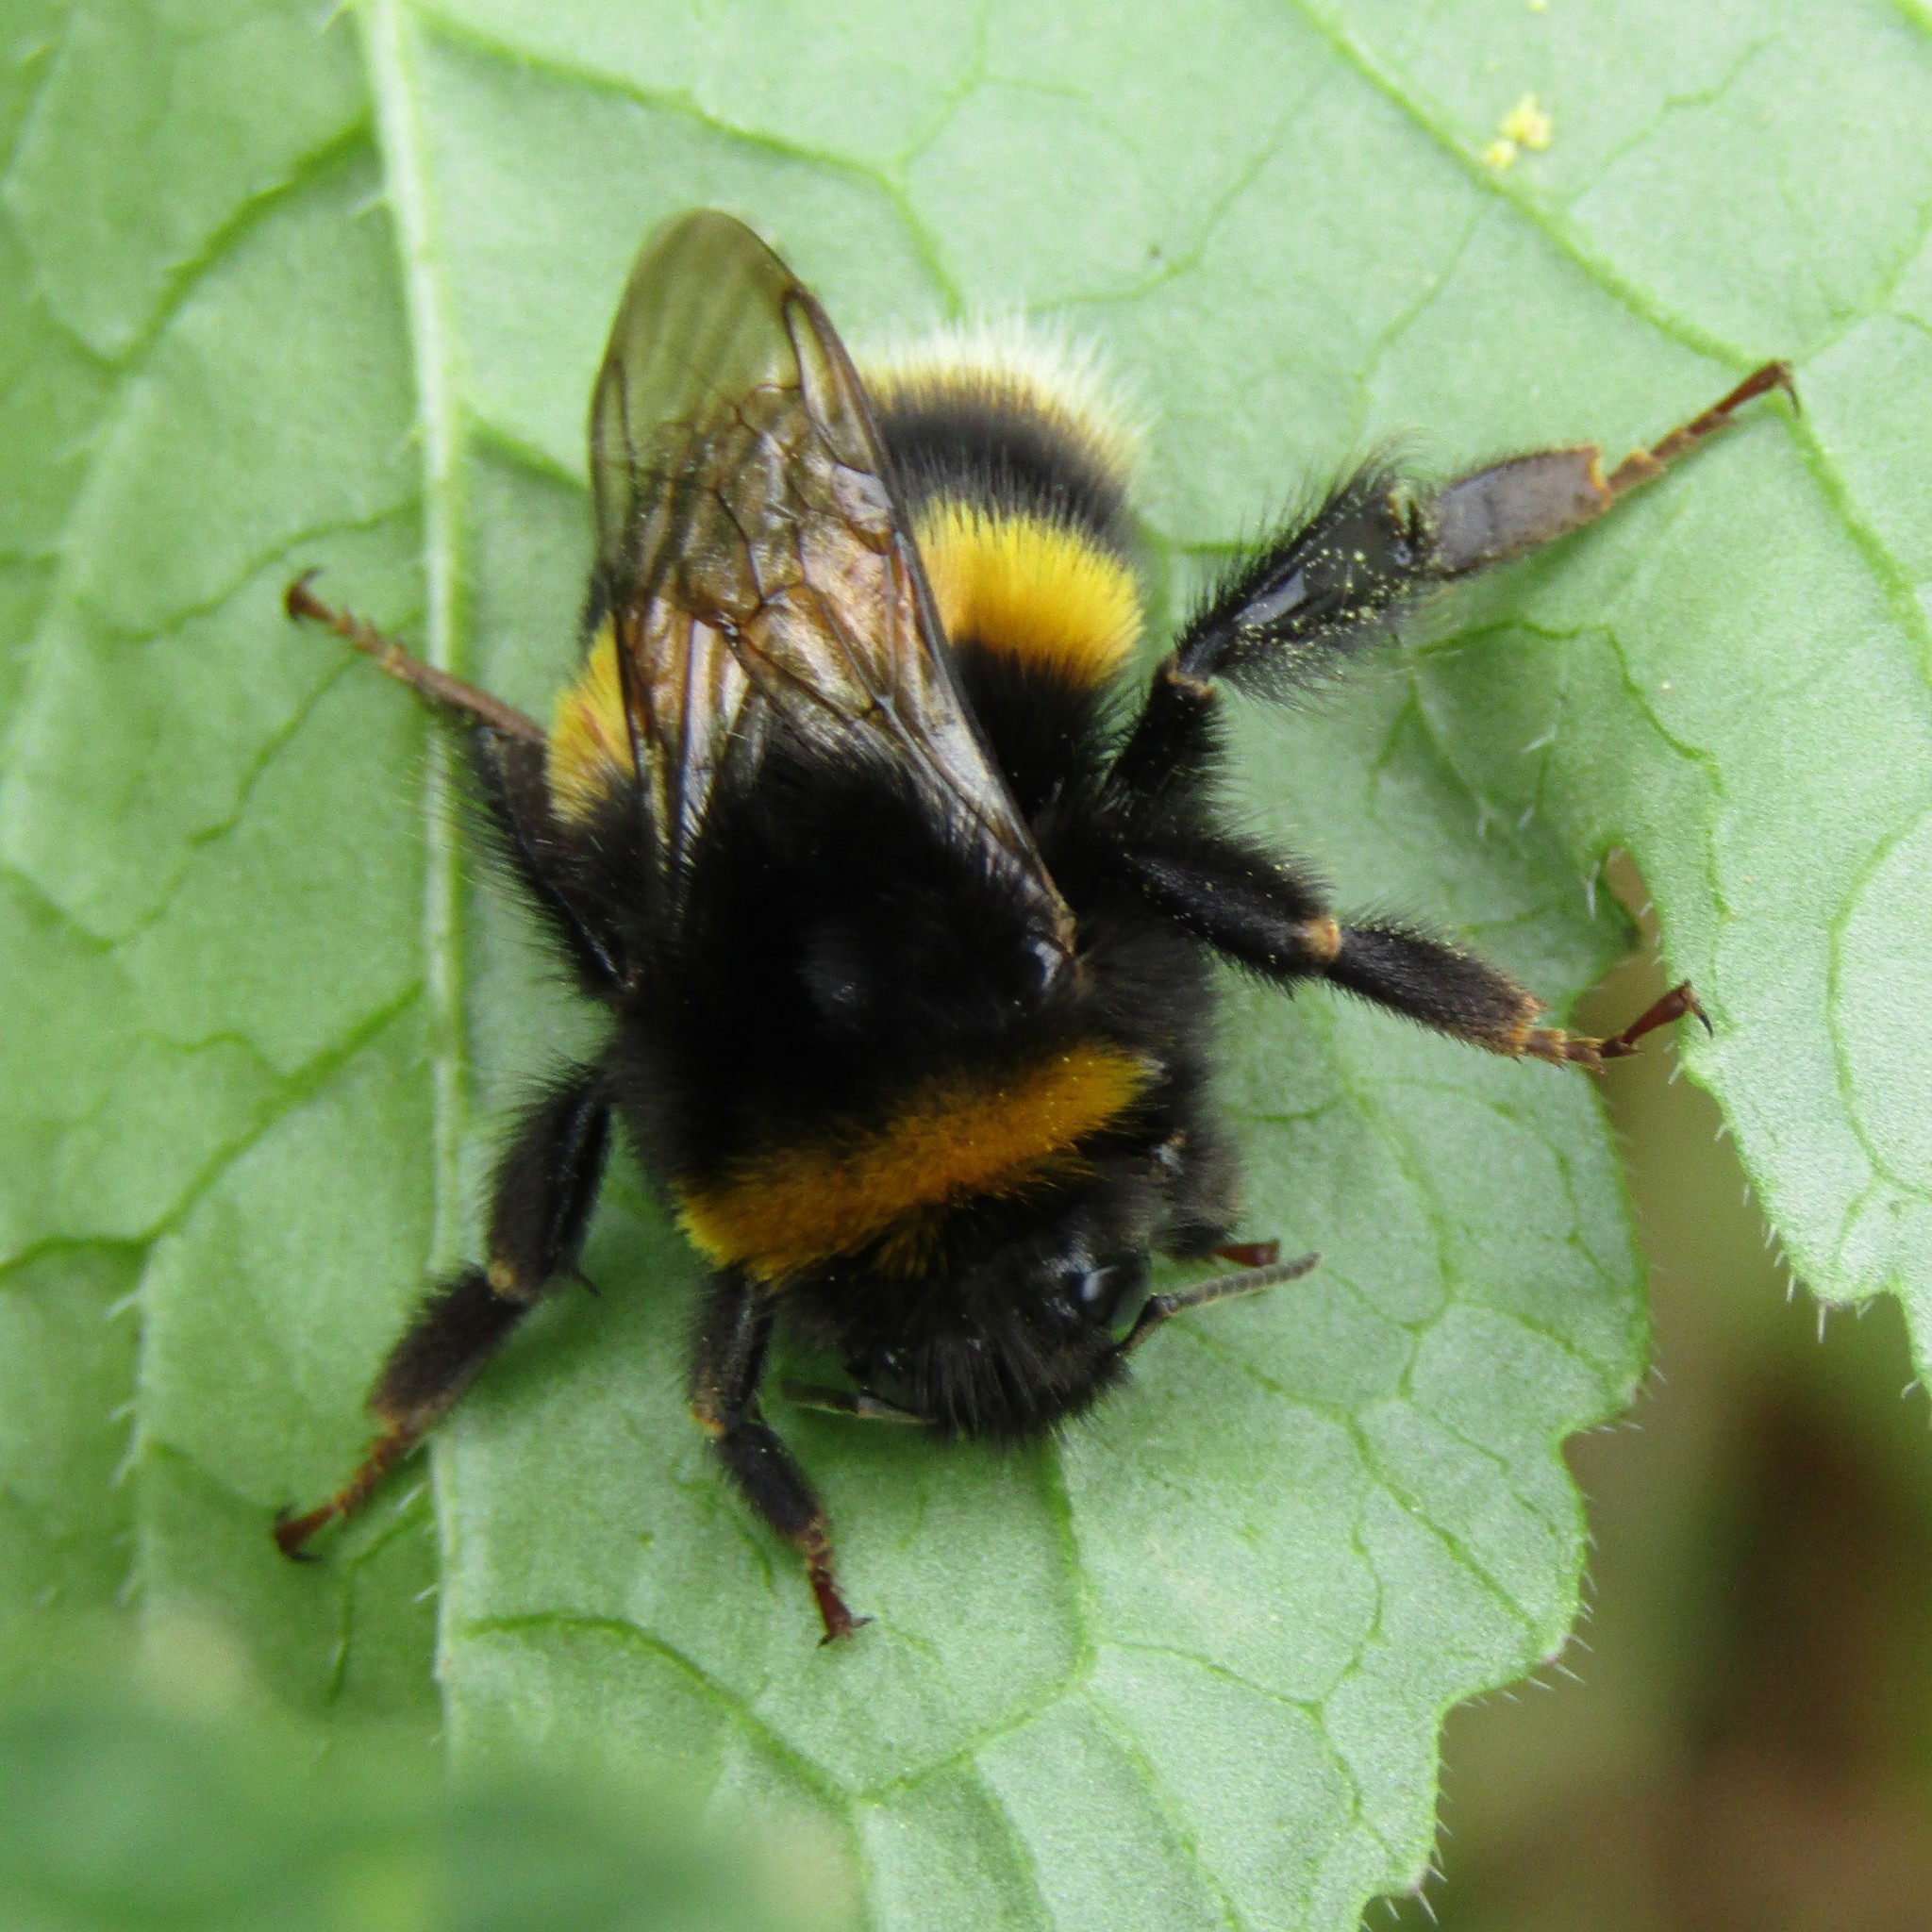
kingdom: Animalia
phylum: Arthropoda
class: Insecta
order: Hymenoptera
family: Apidae
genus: Bombus
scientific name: Bombus terrestris
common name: Buff-tailed bumblebee
